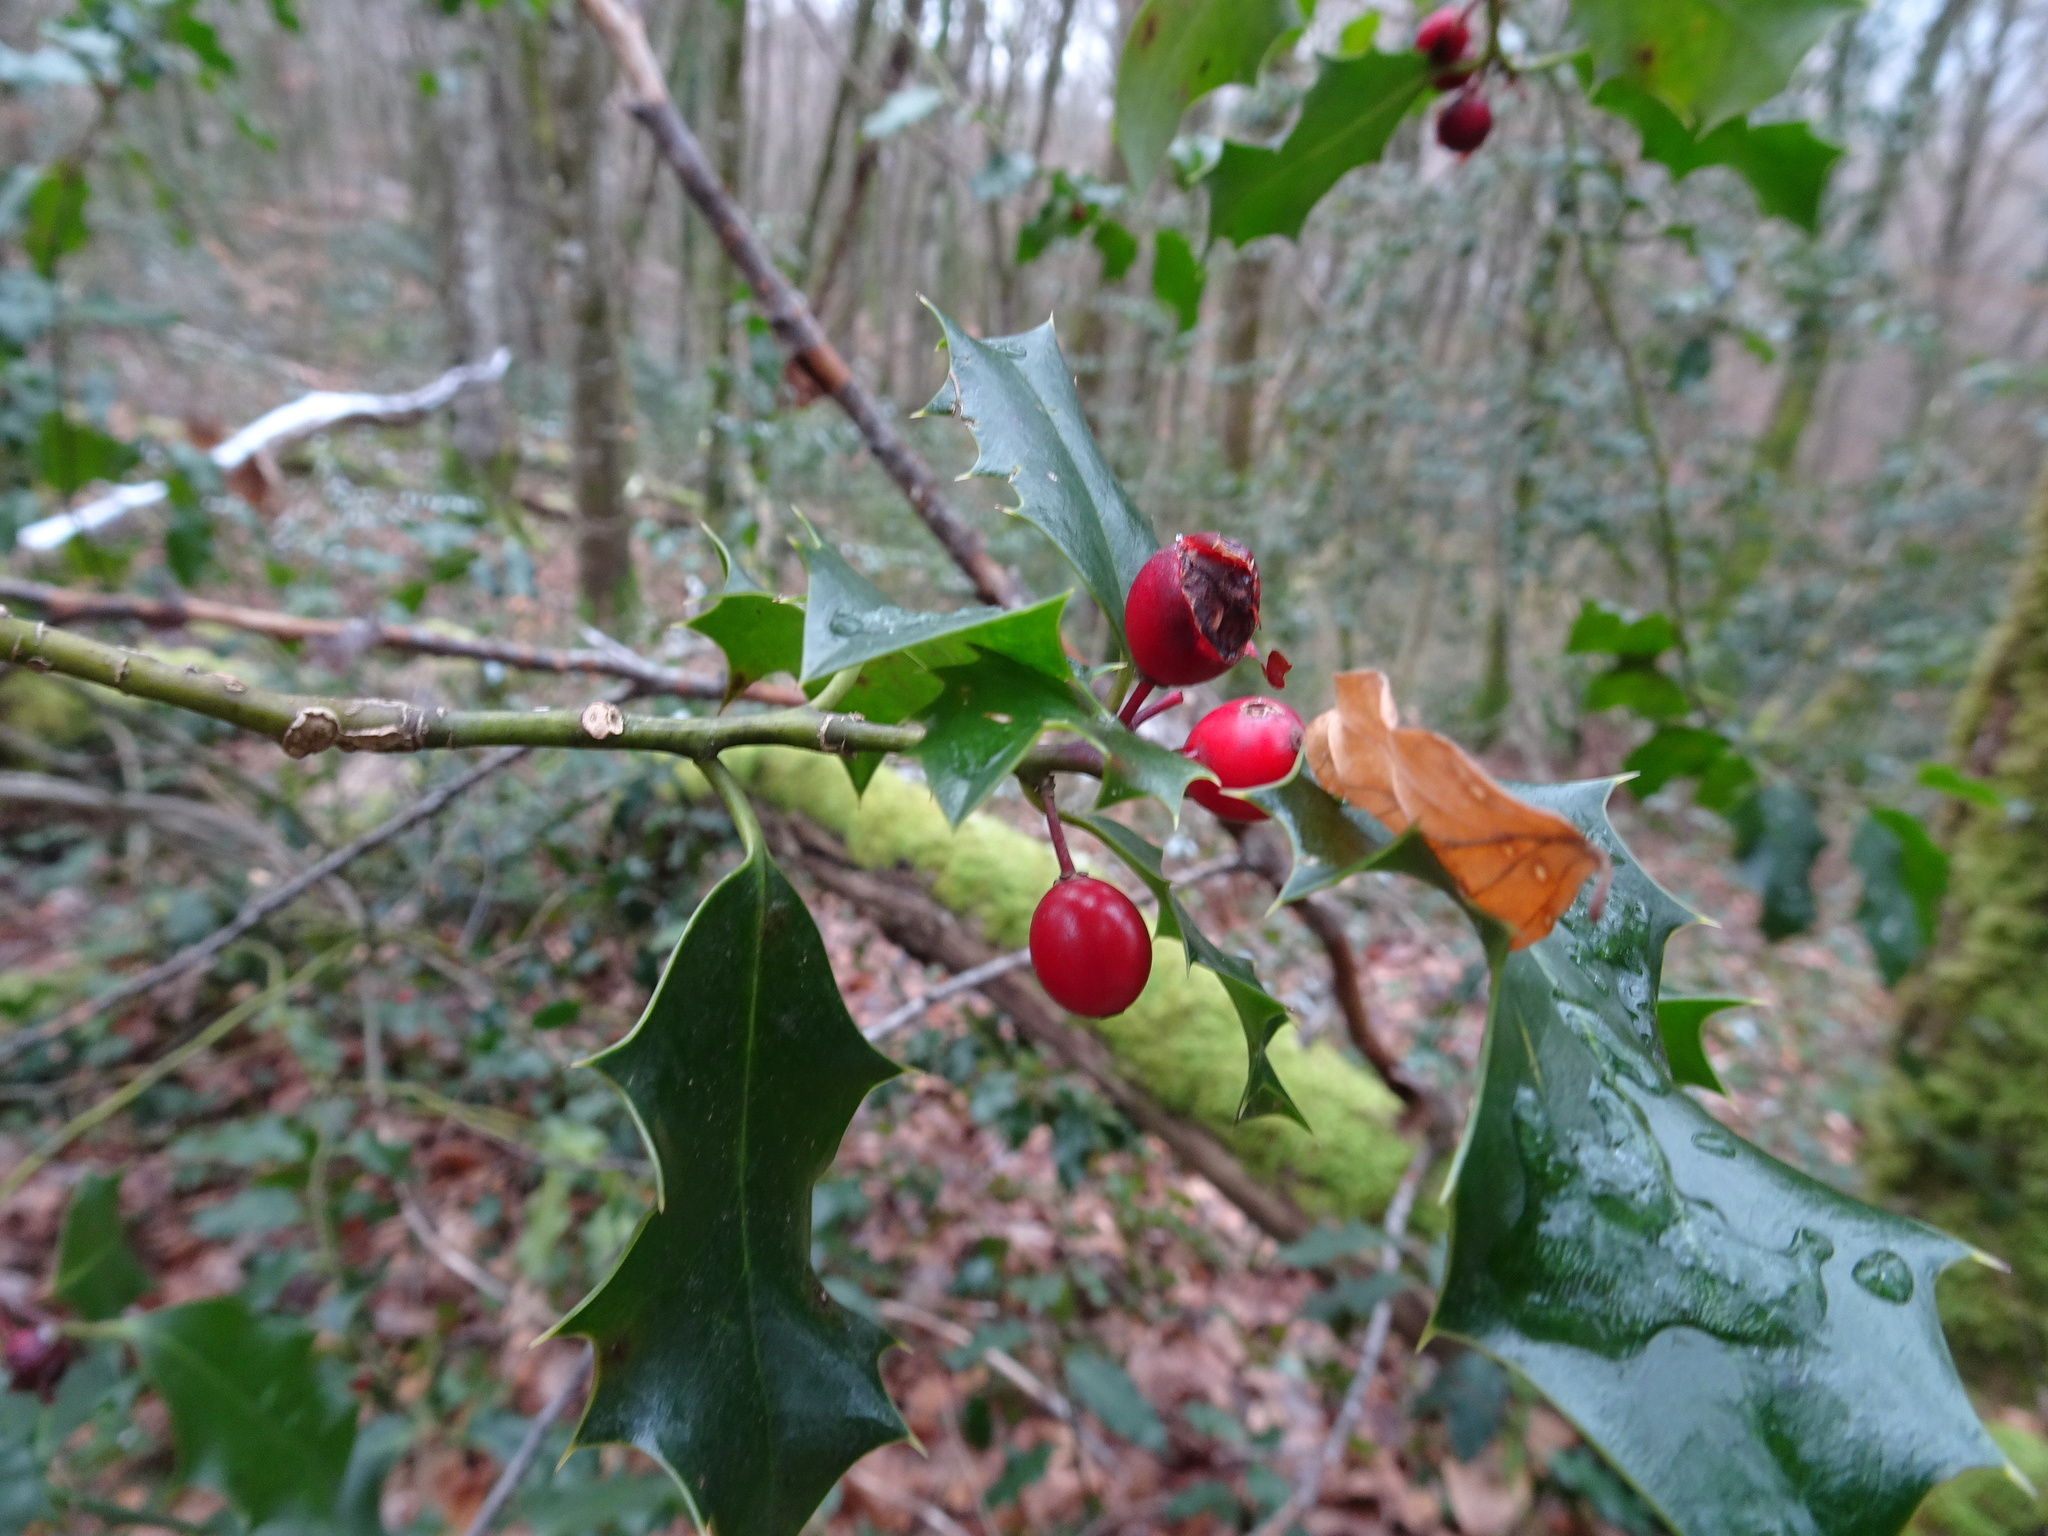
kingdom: Plantae
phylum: Tracheophyta
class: Magnoliopsida
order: Aquifoliales
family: Aquifoliaceae
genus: Ilex
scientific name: Ilex aquifolium
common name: English holly
